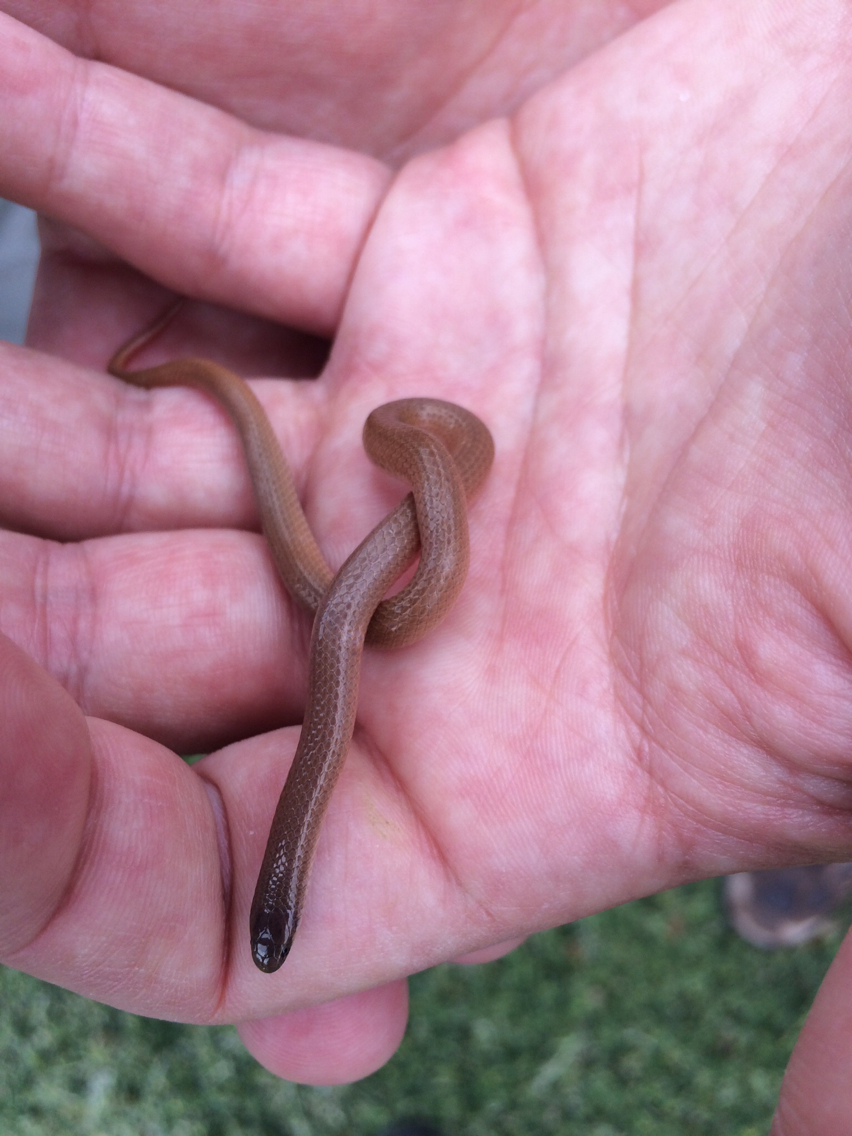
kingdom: Animalia
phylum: Chordata
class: Squamata
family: Colubridae
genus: Tantilla
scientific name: Tantilla gracilis
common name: Flathead snake
